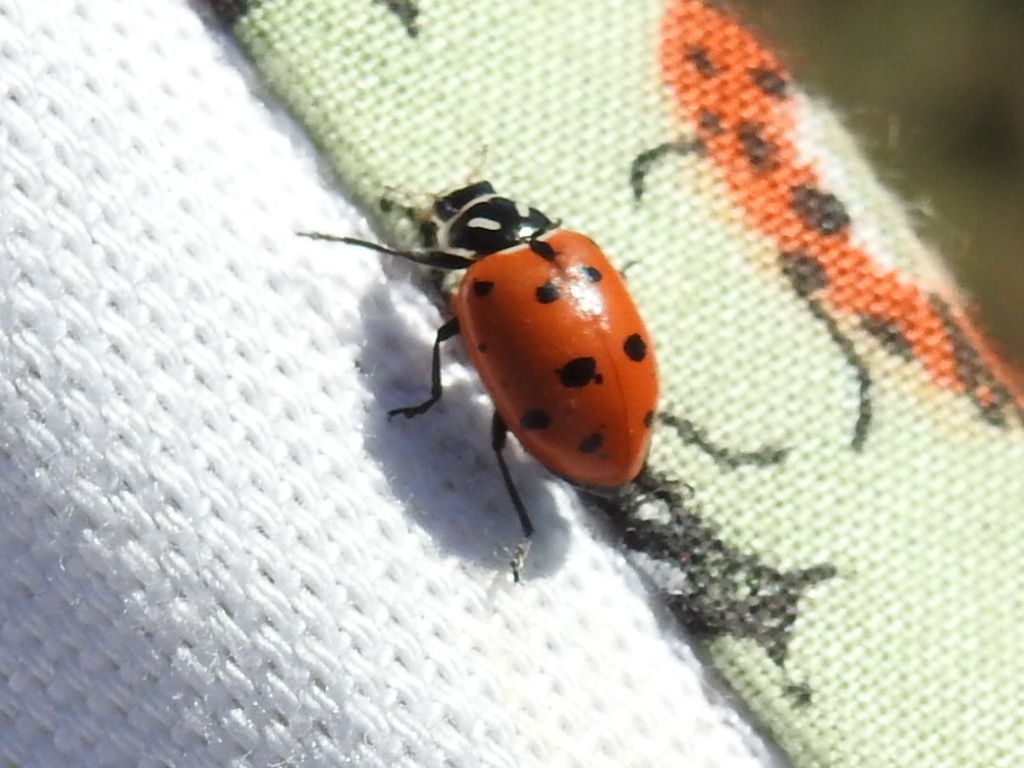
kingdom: Animalia
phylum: Arthropoda
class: Insecta
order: Coleoptera
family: Coccinellidae
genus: Hippodamia
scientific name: Hippodamia convergens
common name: Convergent lady beetle
